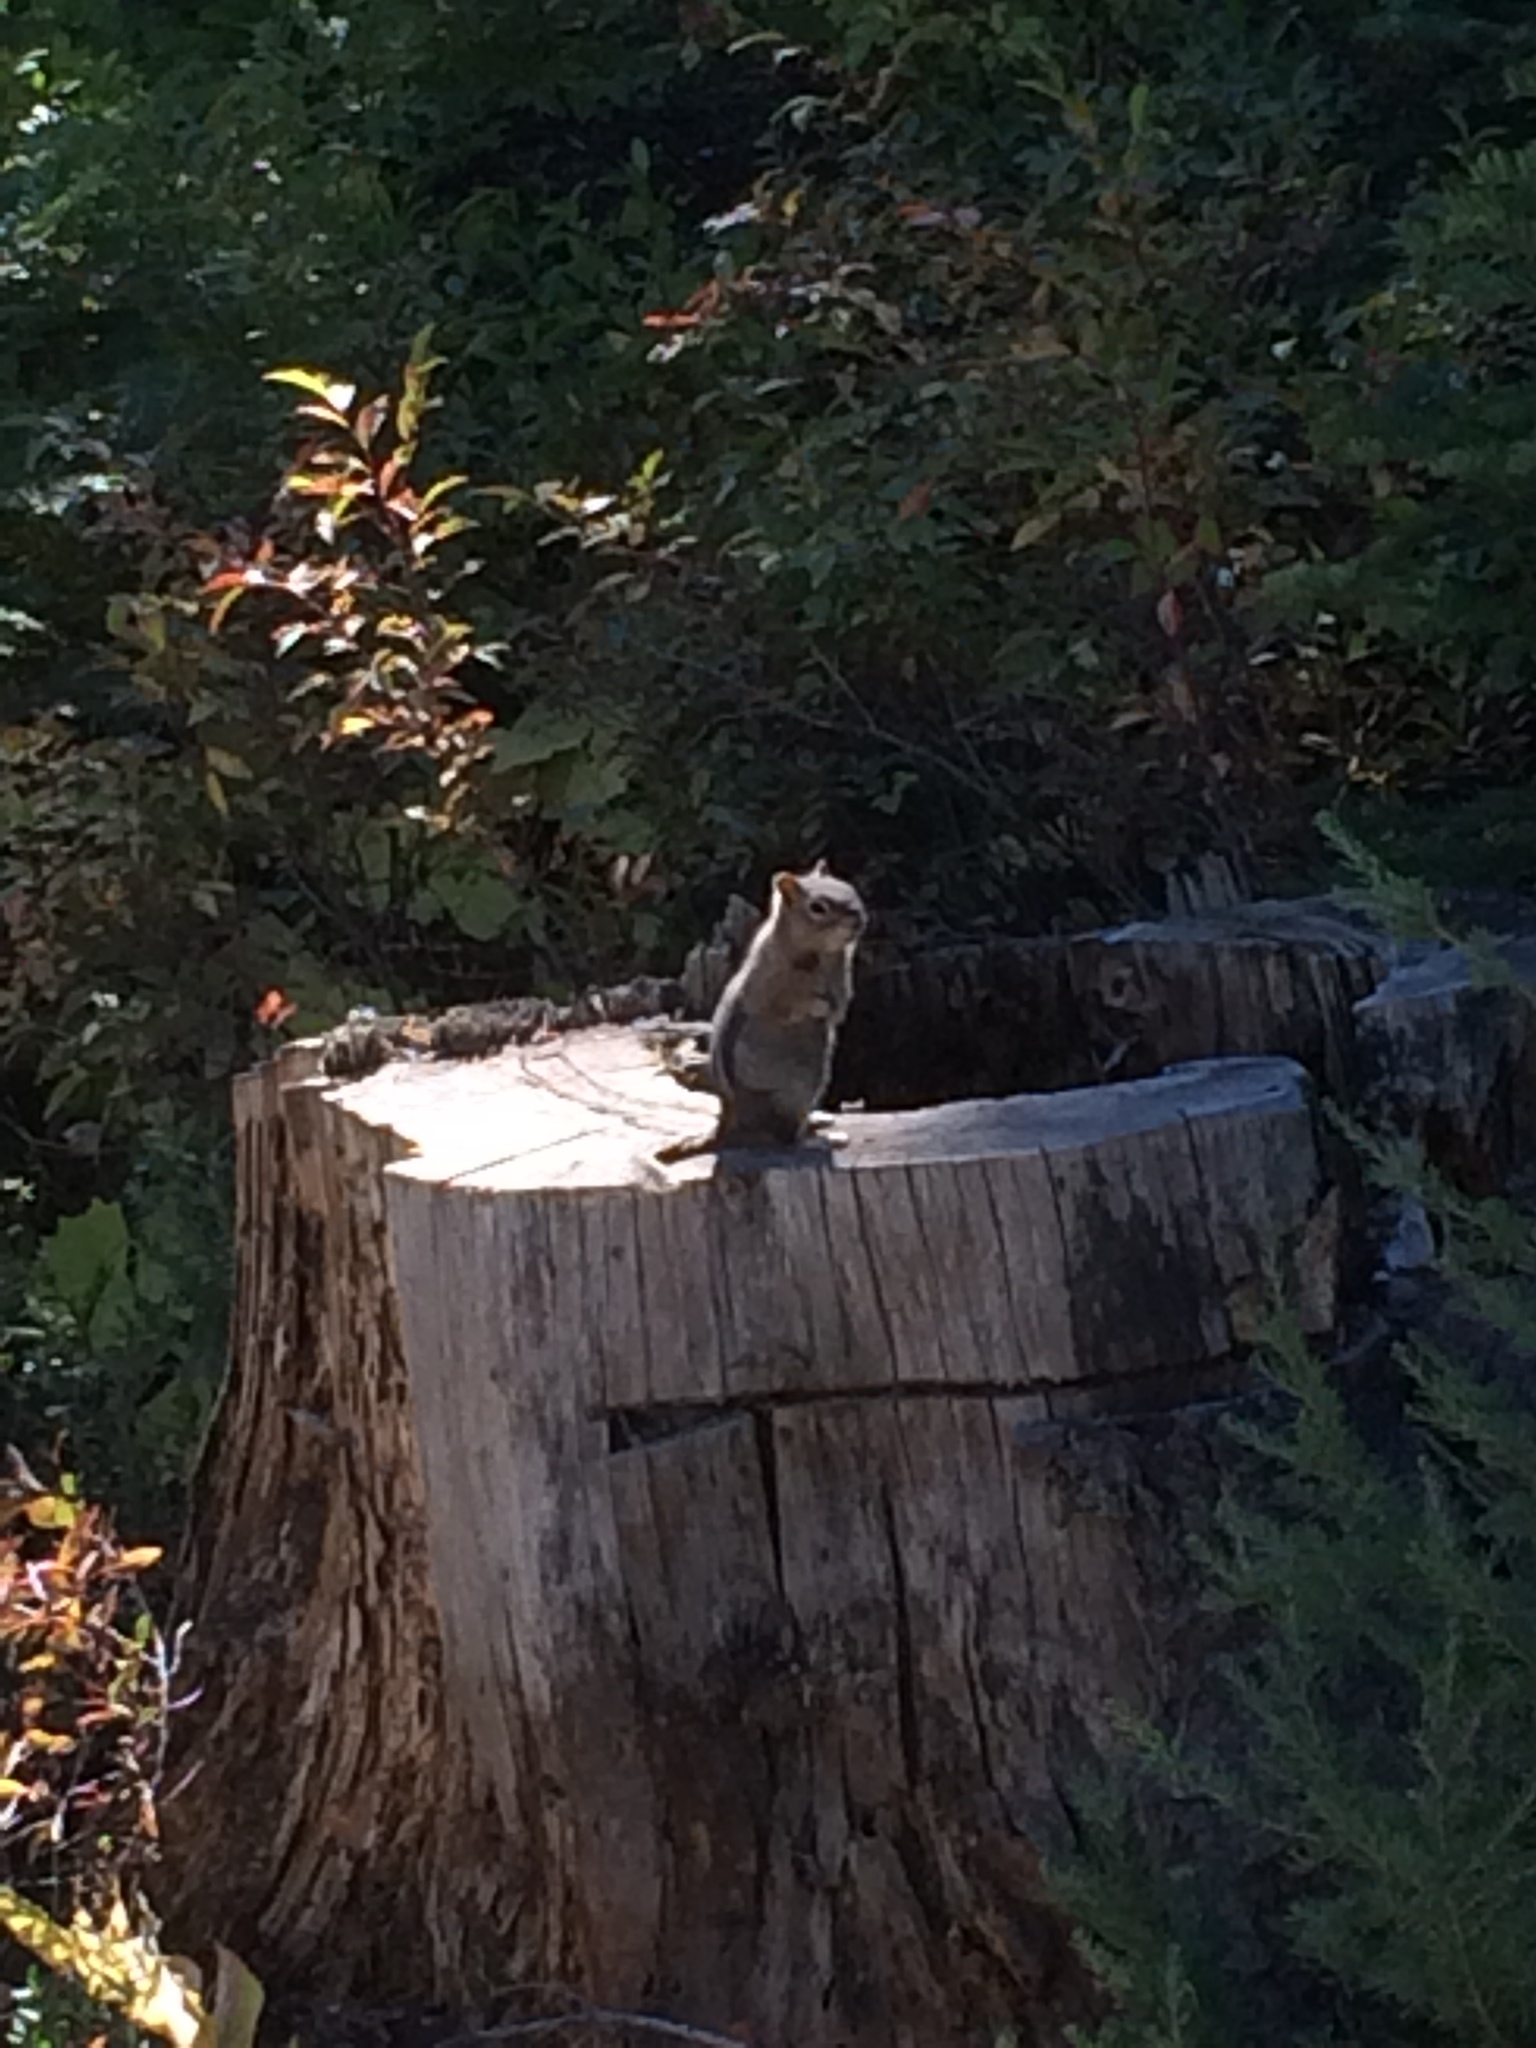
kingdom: Animalia
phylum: Chordata
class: Mammalia
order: Rodentia
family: Sciuridae
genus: Callospermophilus
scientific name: Callospermophilus lateralis
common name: Golden-mantled ground squirrel
